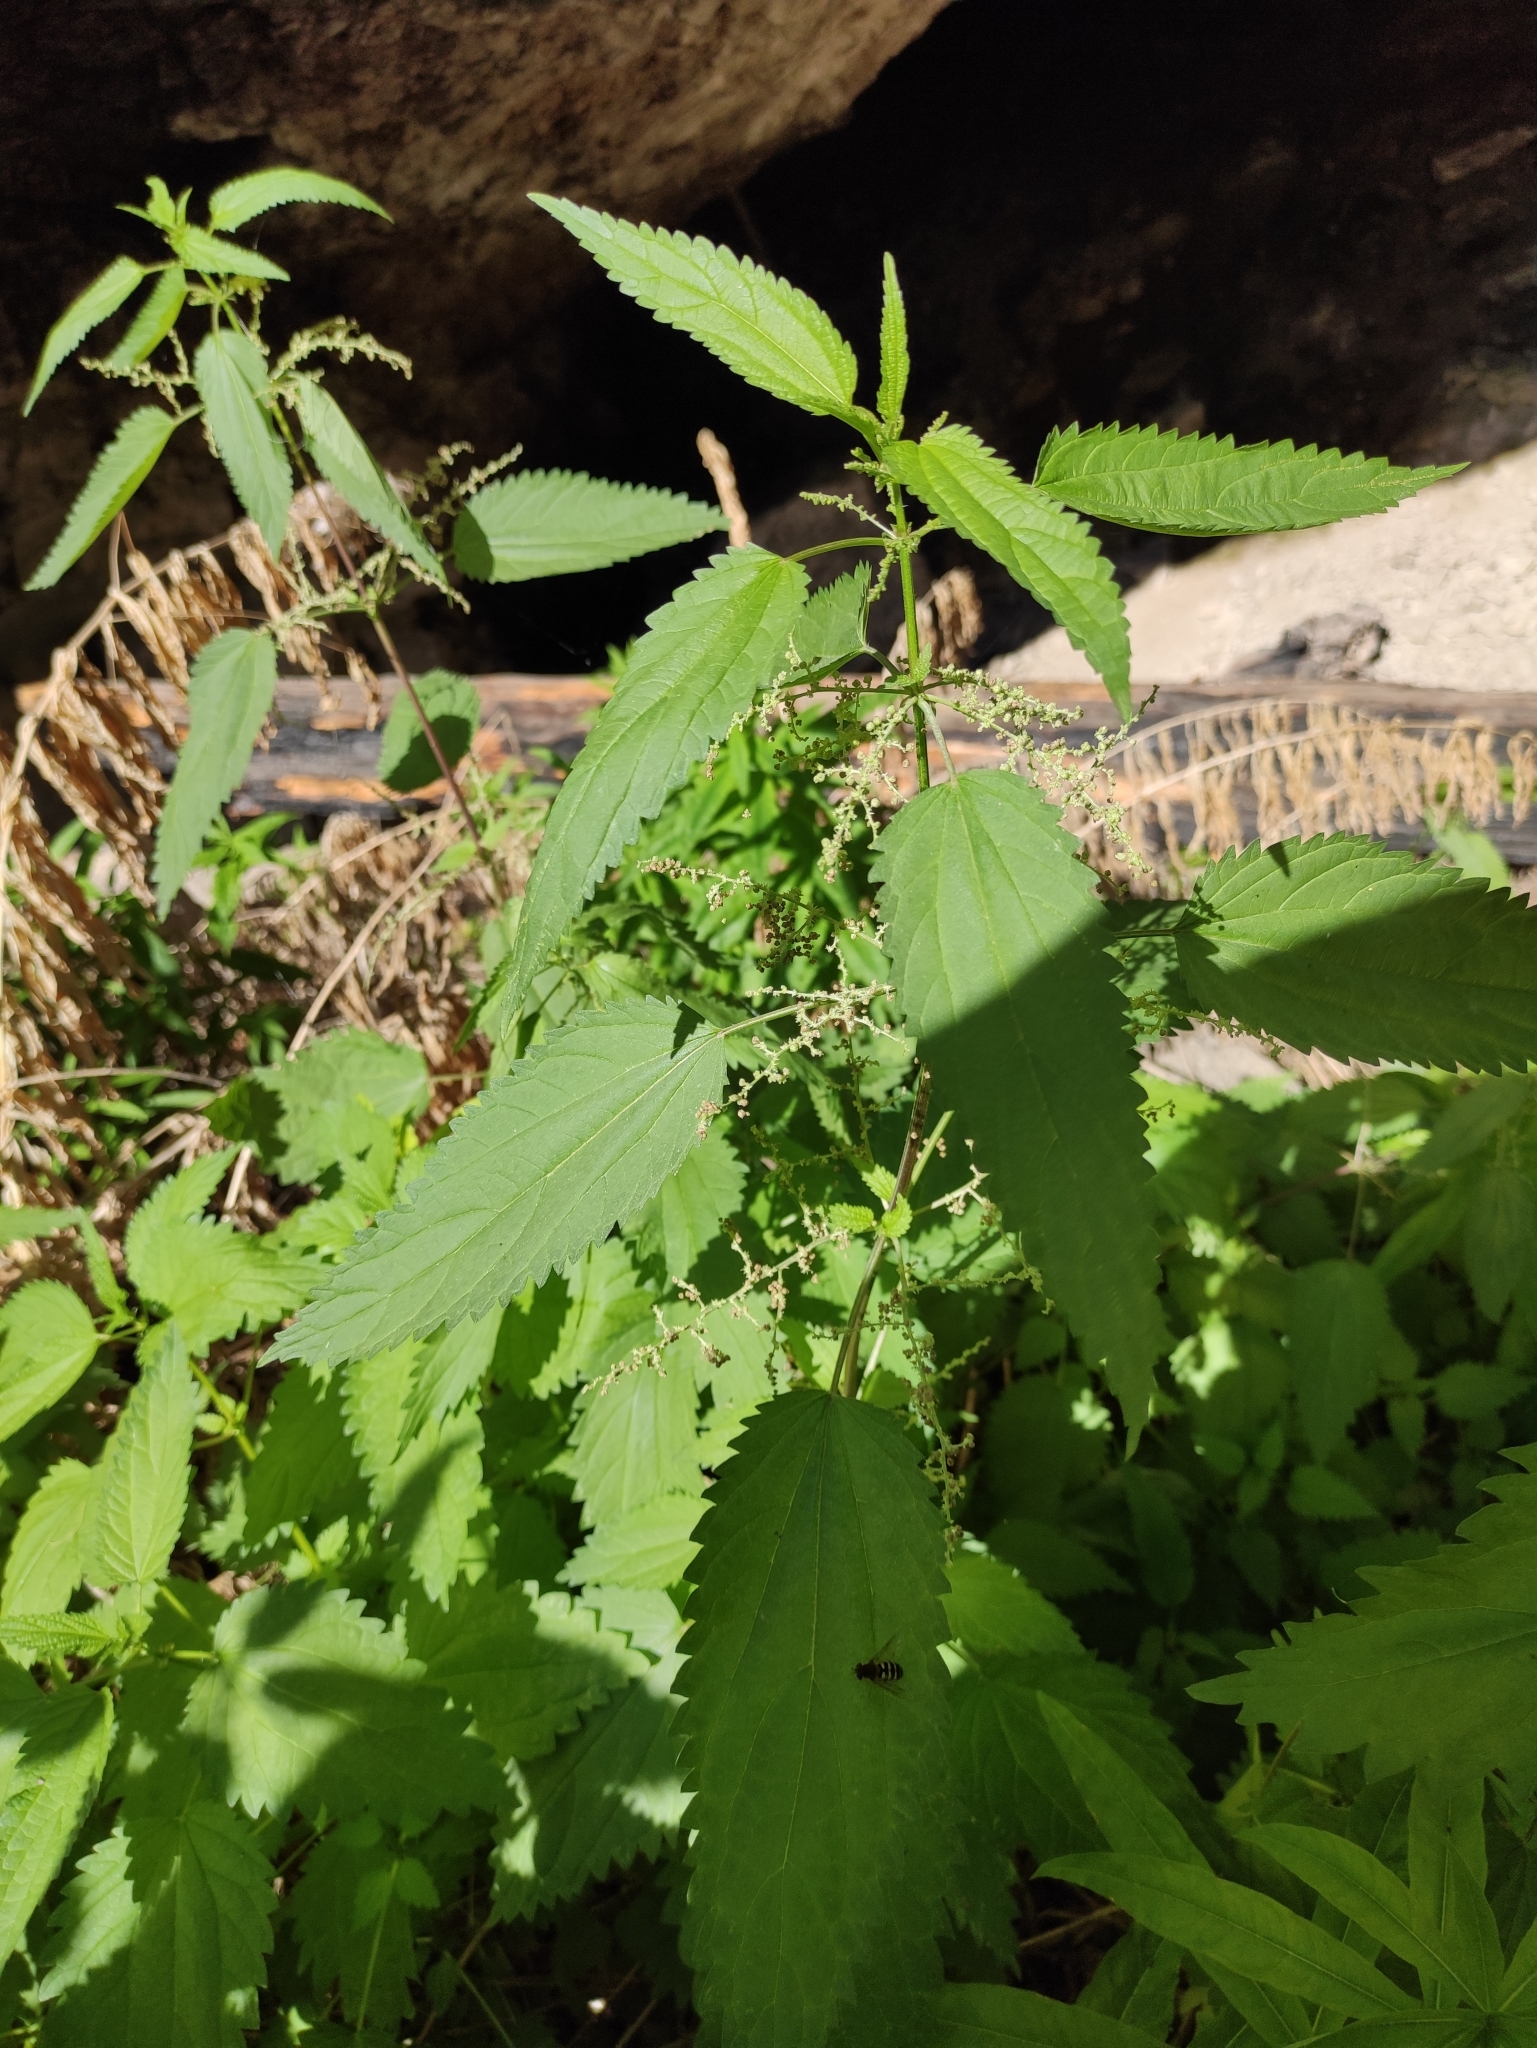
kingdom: Plantae
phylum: Tracheophyta
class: Magnoliopsida
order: Rosales
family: Urticaceae
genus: Urtica
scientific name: Urtica dioica
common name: Common nettle
